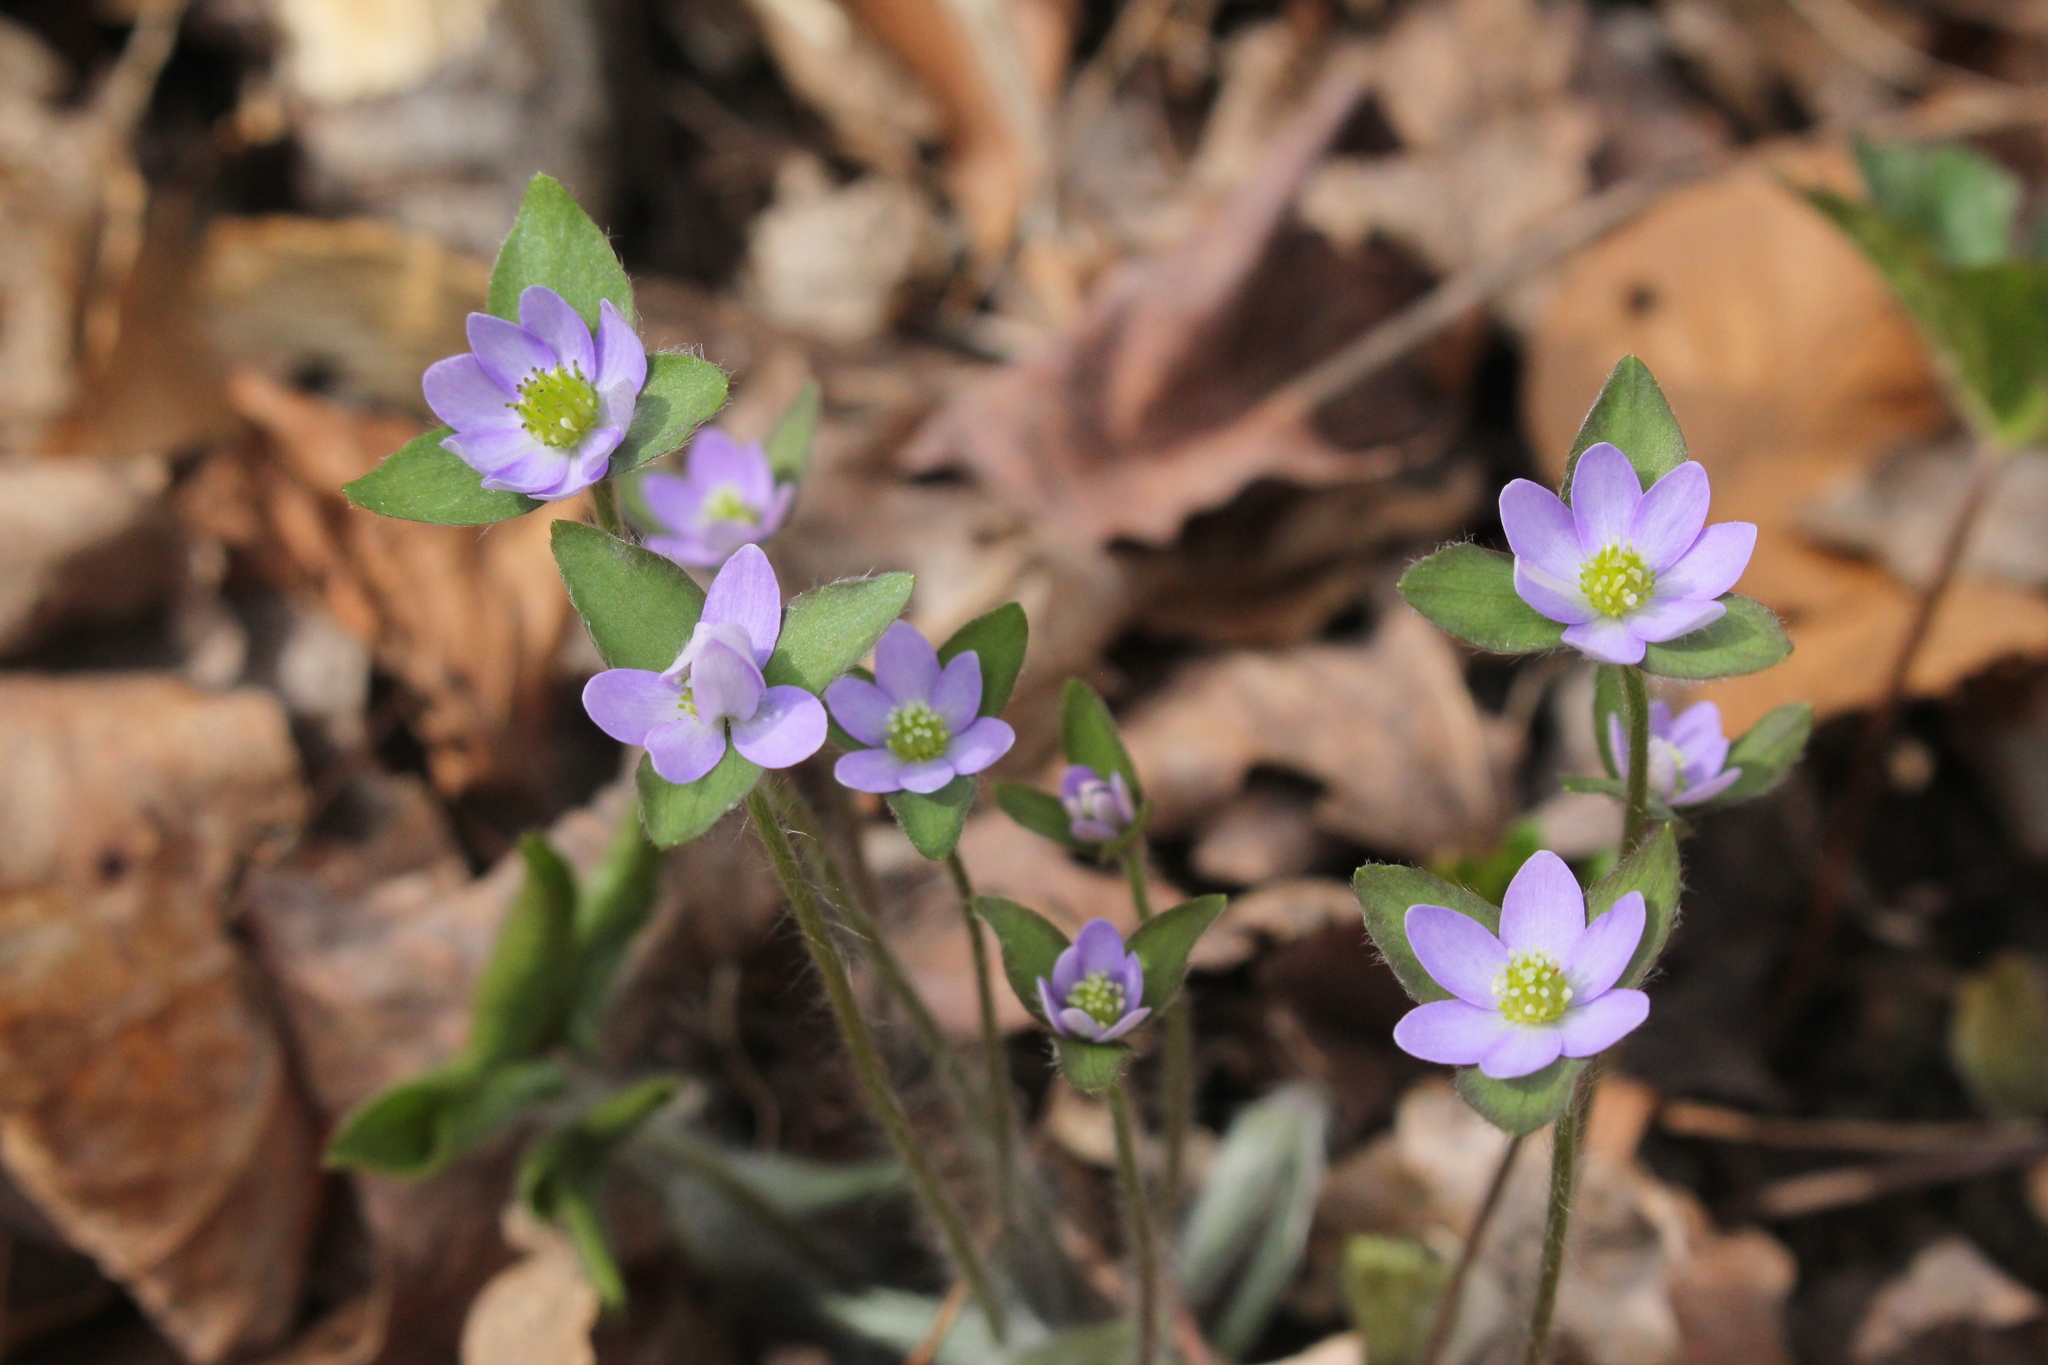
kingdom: Plantae
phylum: Tracheophyta
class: Magnoliopsida
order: Ranunculales
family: Ranunculaceae
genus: Hepatica
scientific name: Hepatica acutiloba
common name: Sharp-lobed hepatica
